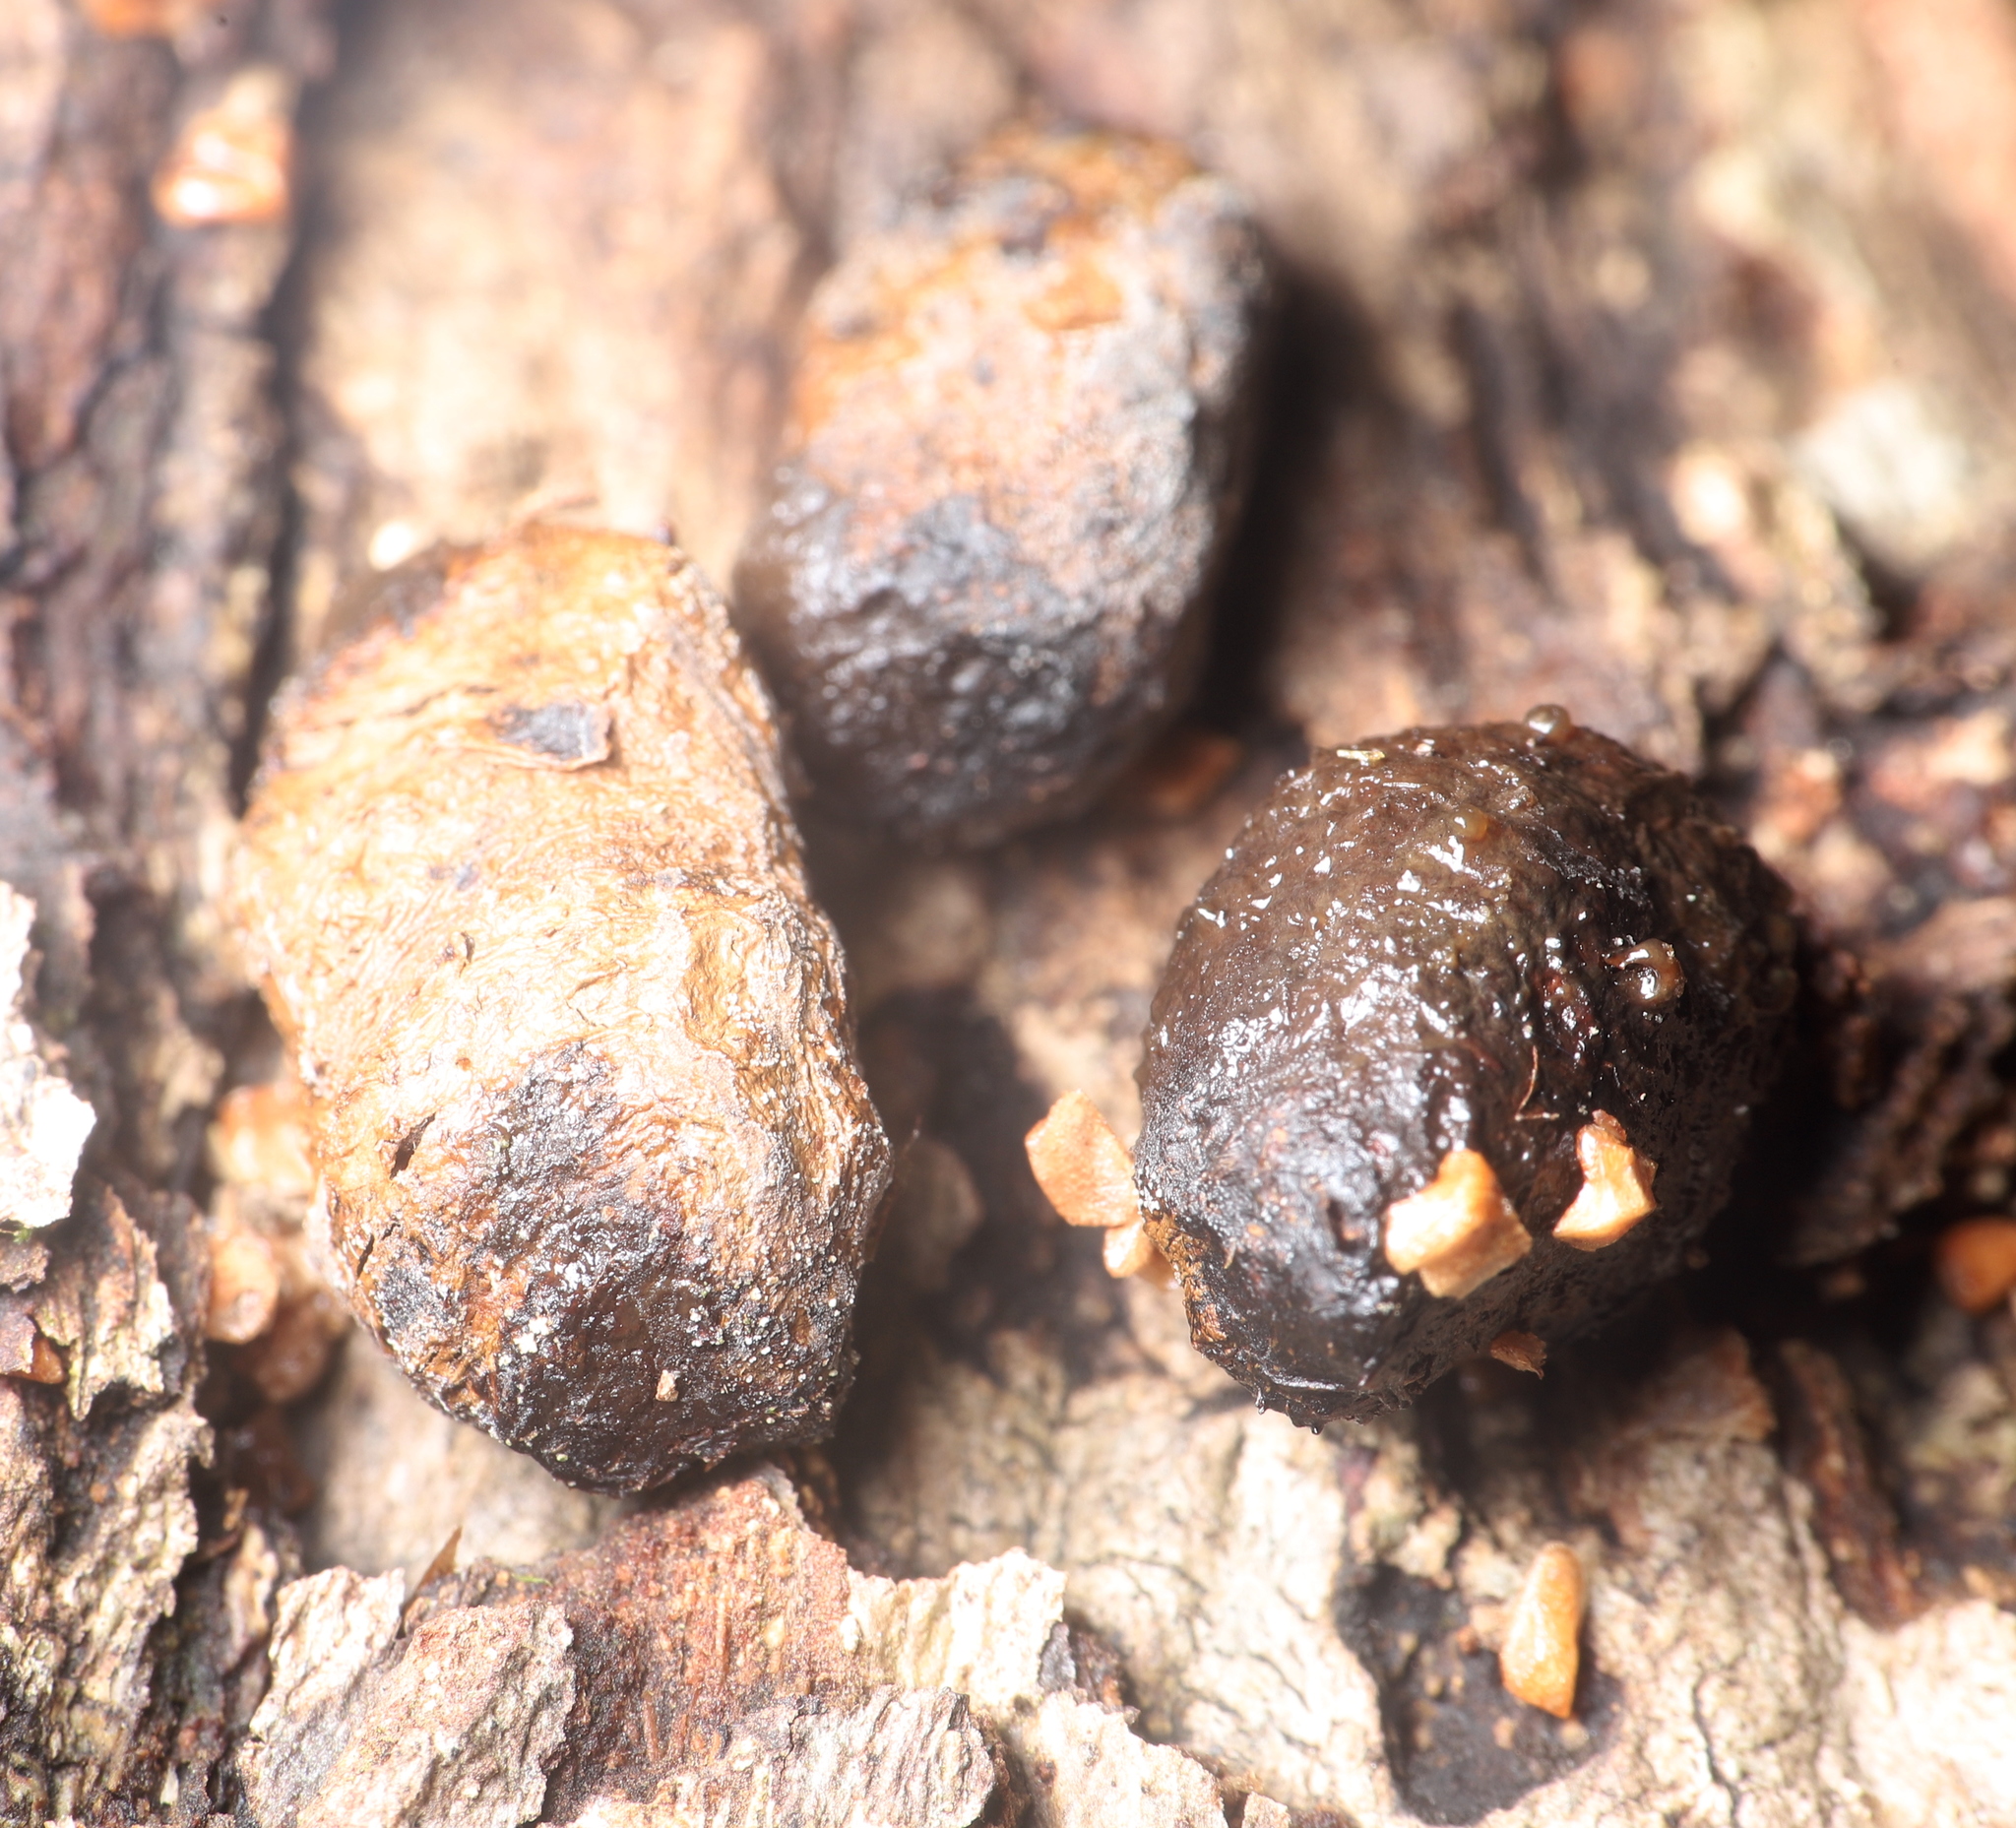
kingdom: Animalia
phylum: Chordata
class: Mammalia
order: Artiodactyla
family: Cervidae
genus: Odocoileus
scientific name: Odocoileus virginianus
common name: White-tailed deer
